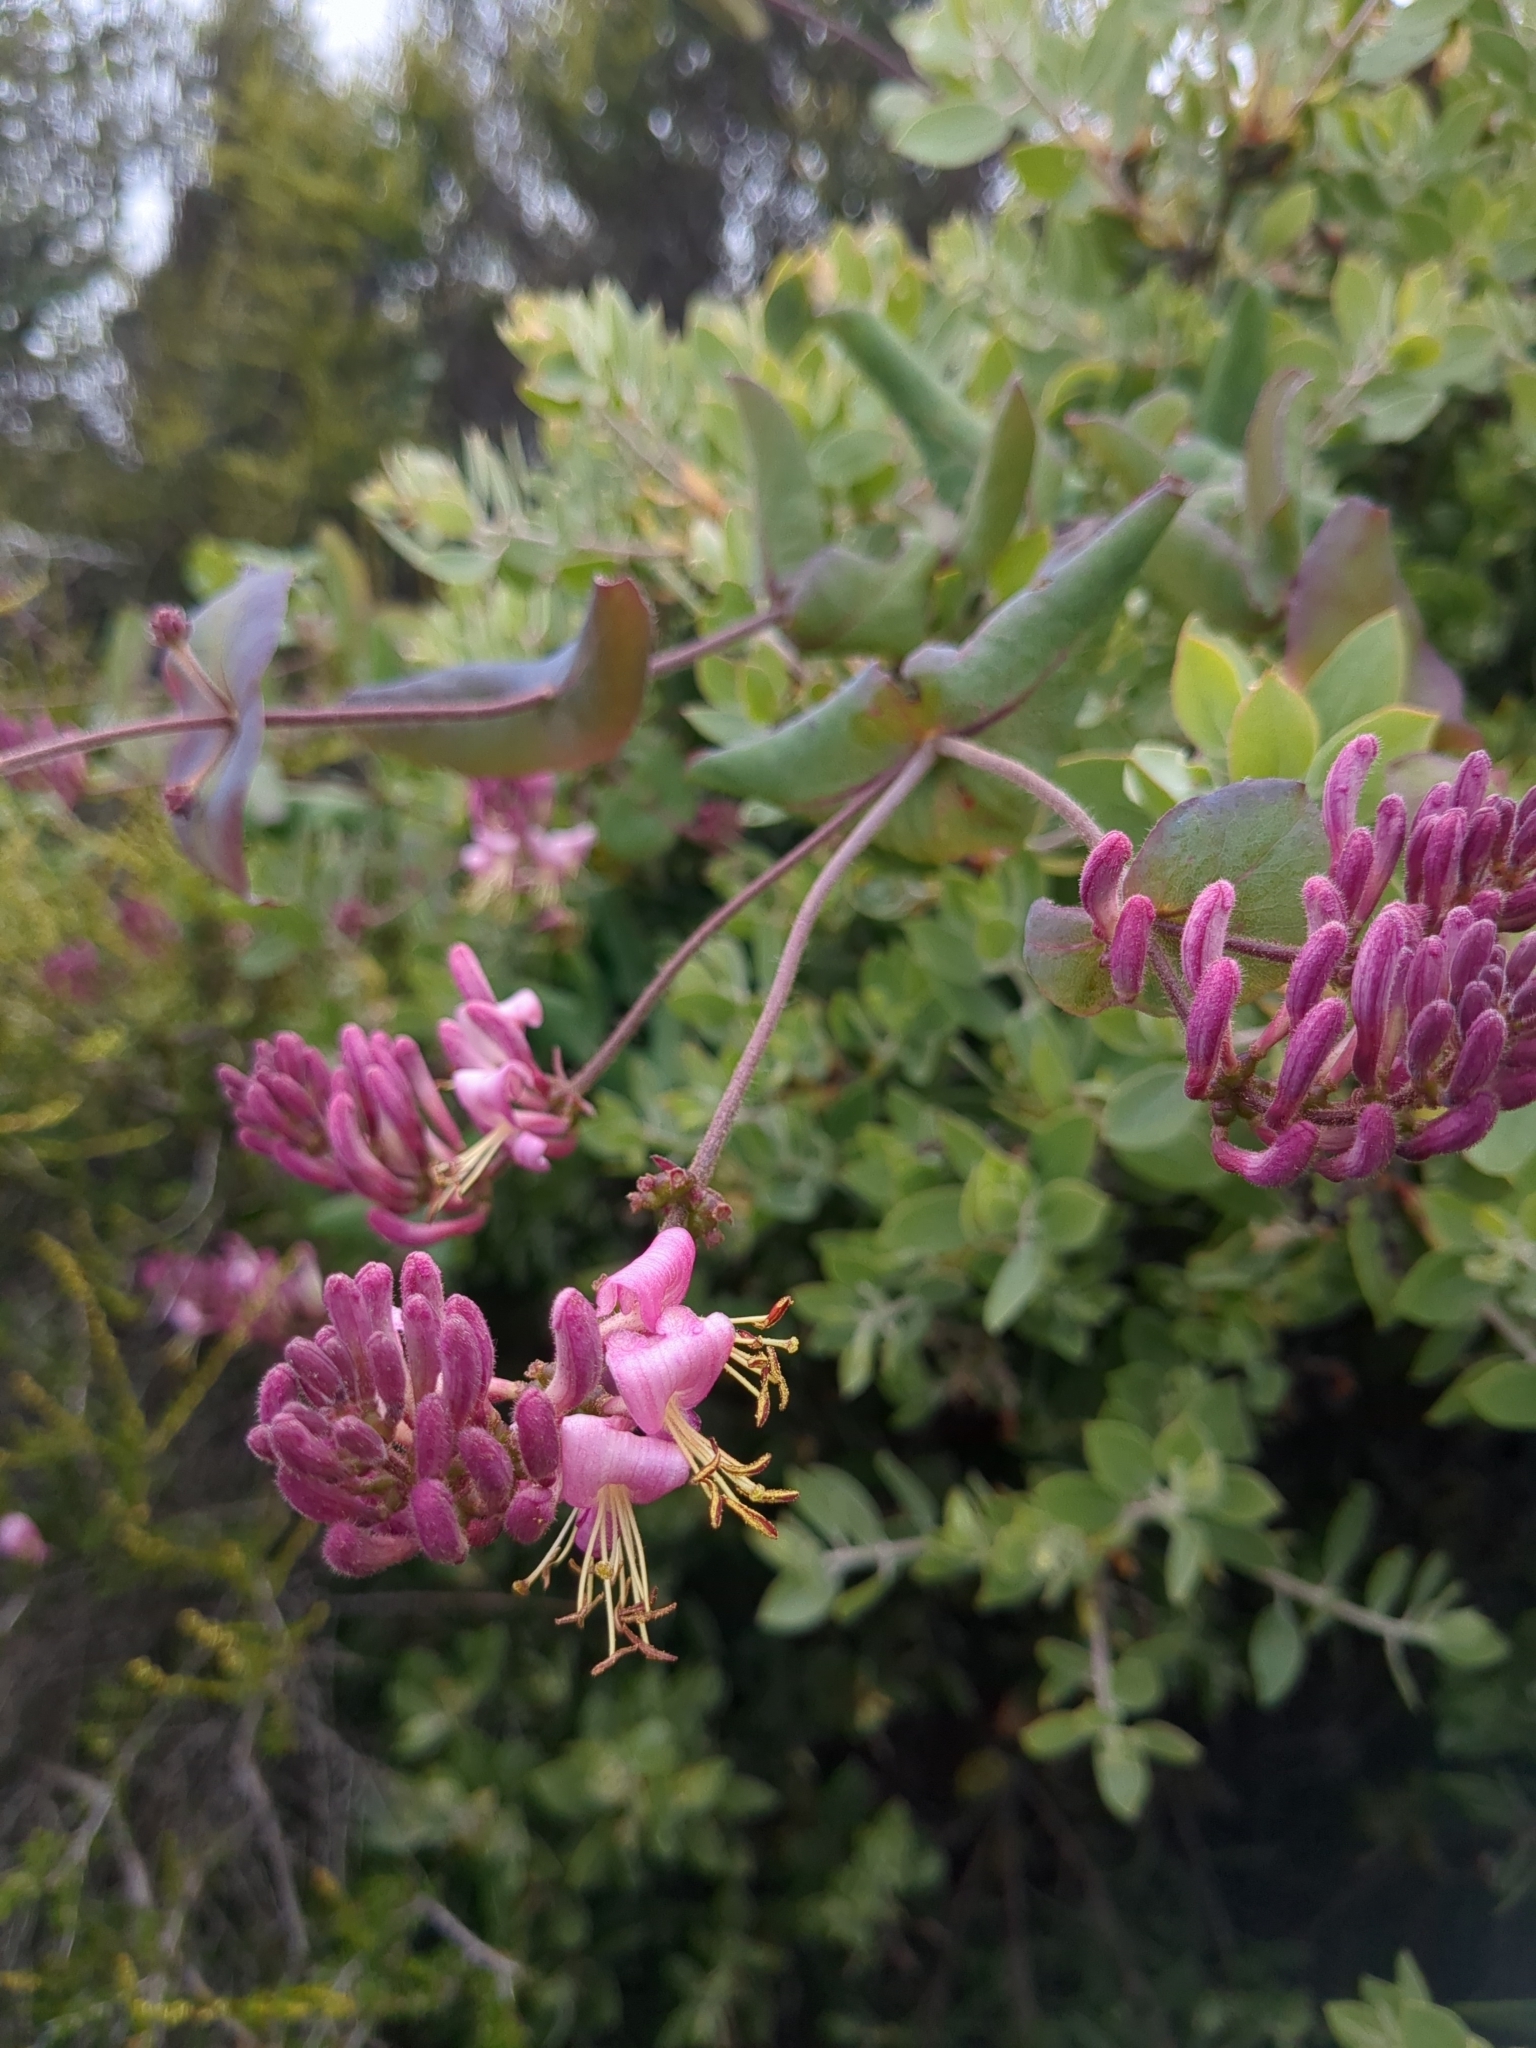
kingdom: Plantae
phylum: Tracheophyta
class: Magnoliopsida
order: Dipsacales
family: Caprifoliaceae
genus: Lonicera
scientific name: Lonicera hispidula
